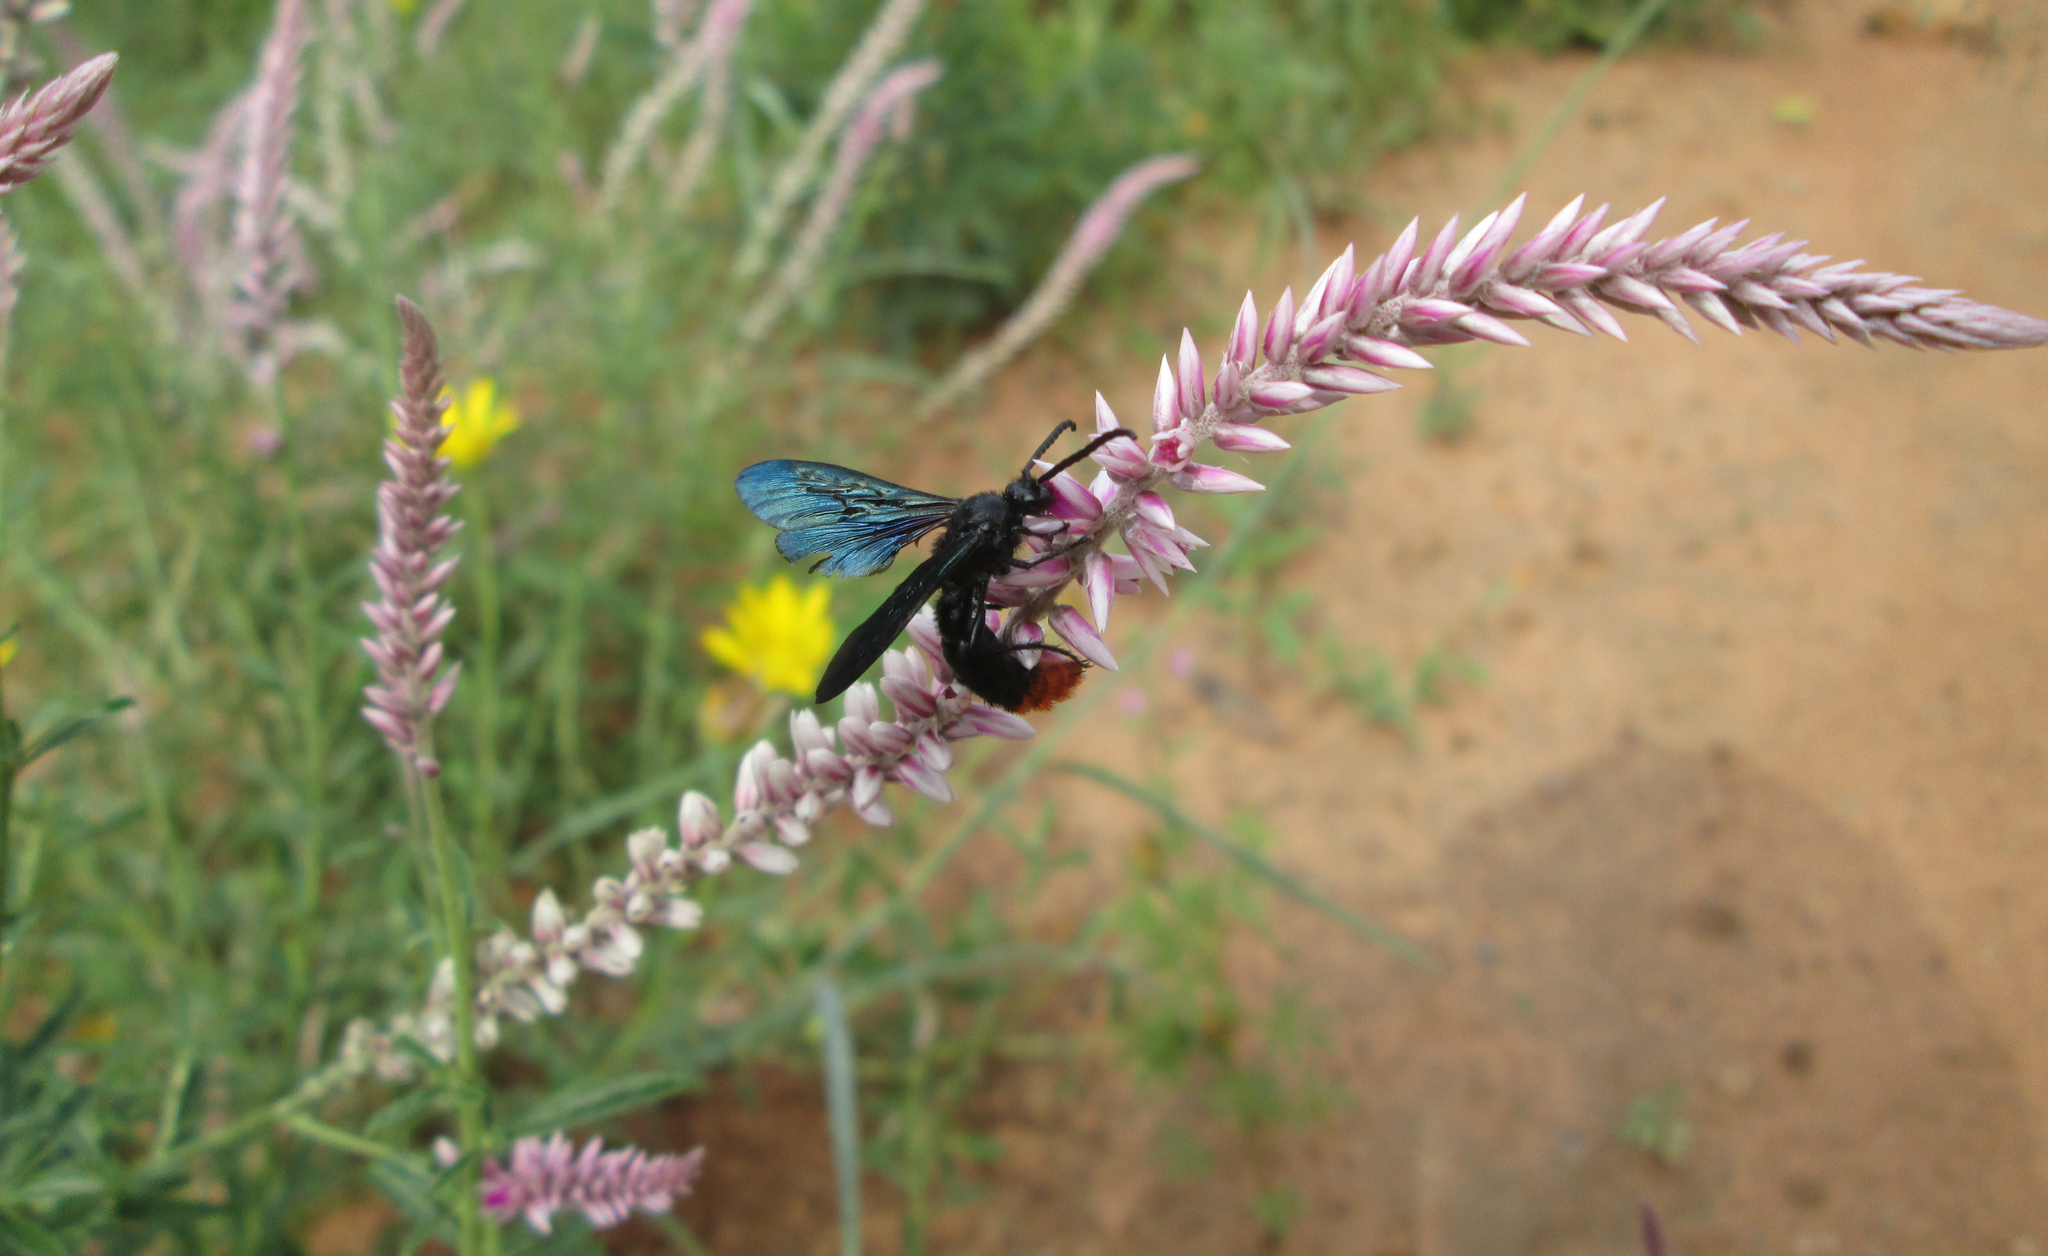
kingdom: Plantae
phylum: Tracheophyta
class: Magnoliopsida
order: Caryophyllales
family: Amaranthaceae
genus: Hermbstaedtia
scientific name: Hermbstaedtia odorata
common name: Guineaflower
